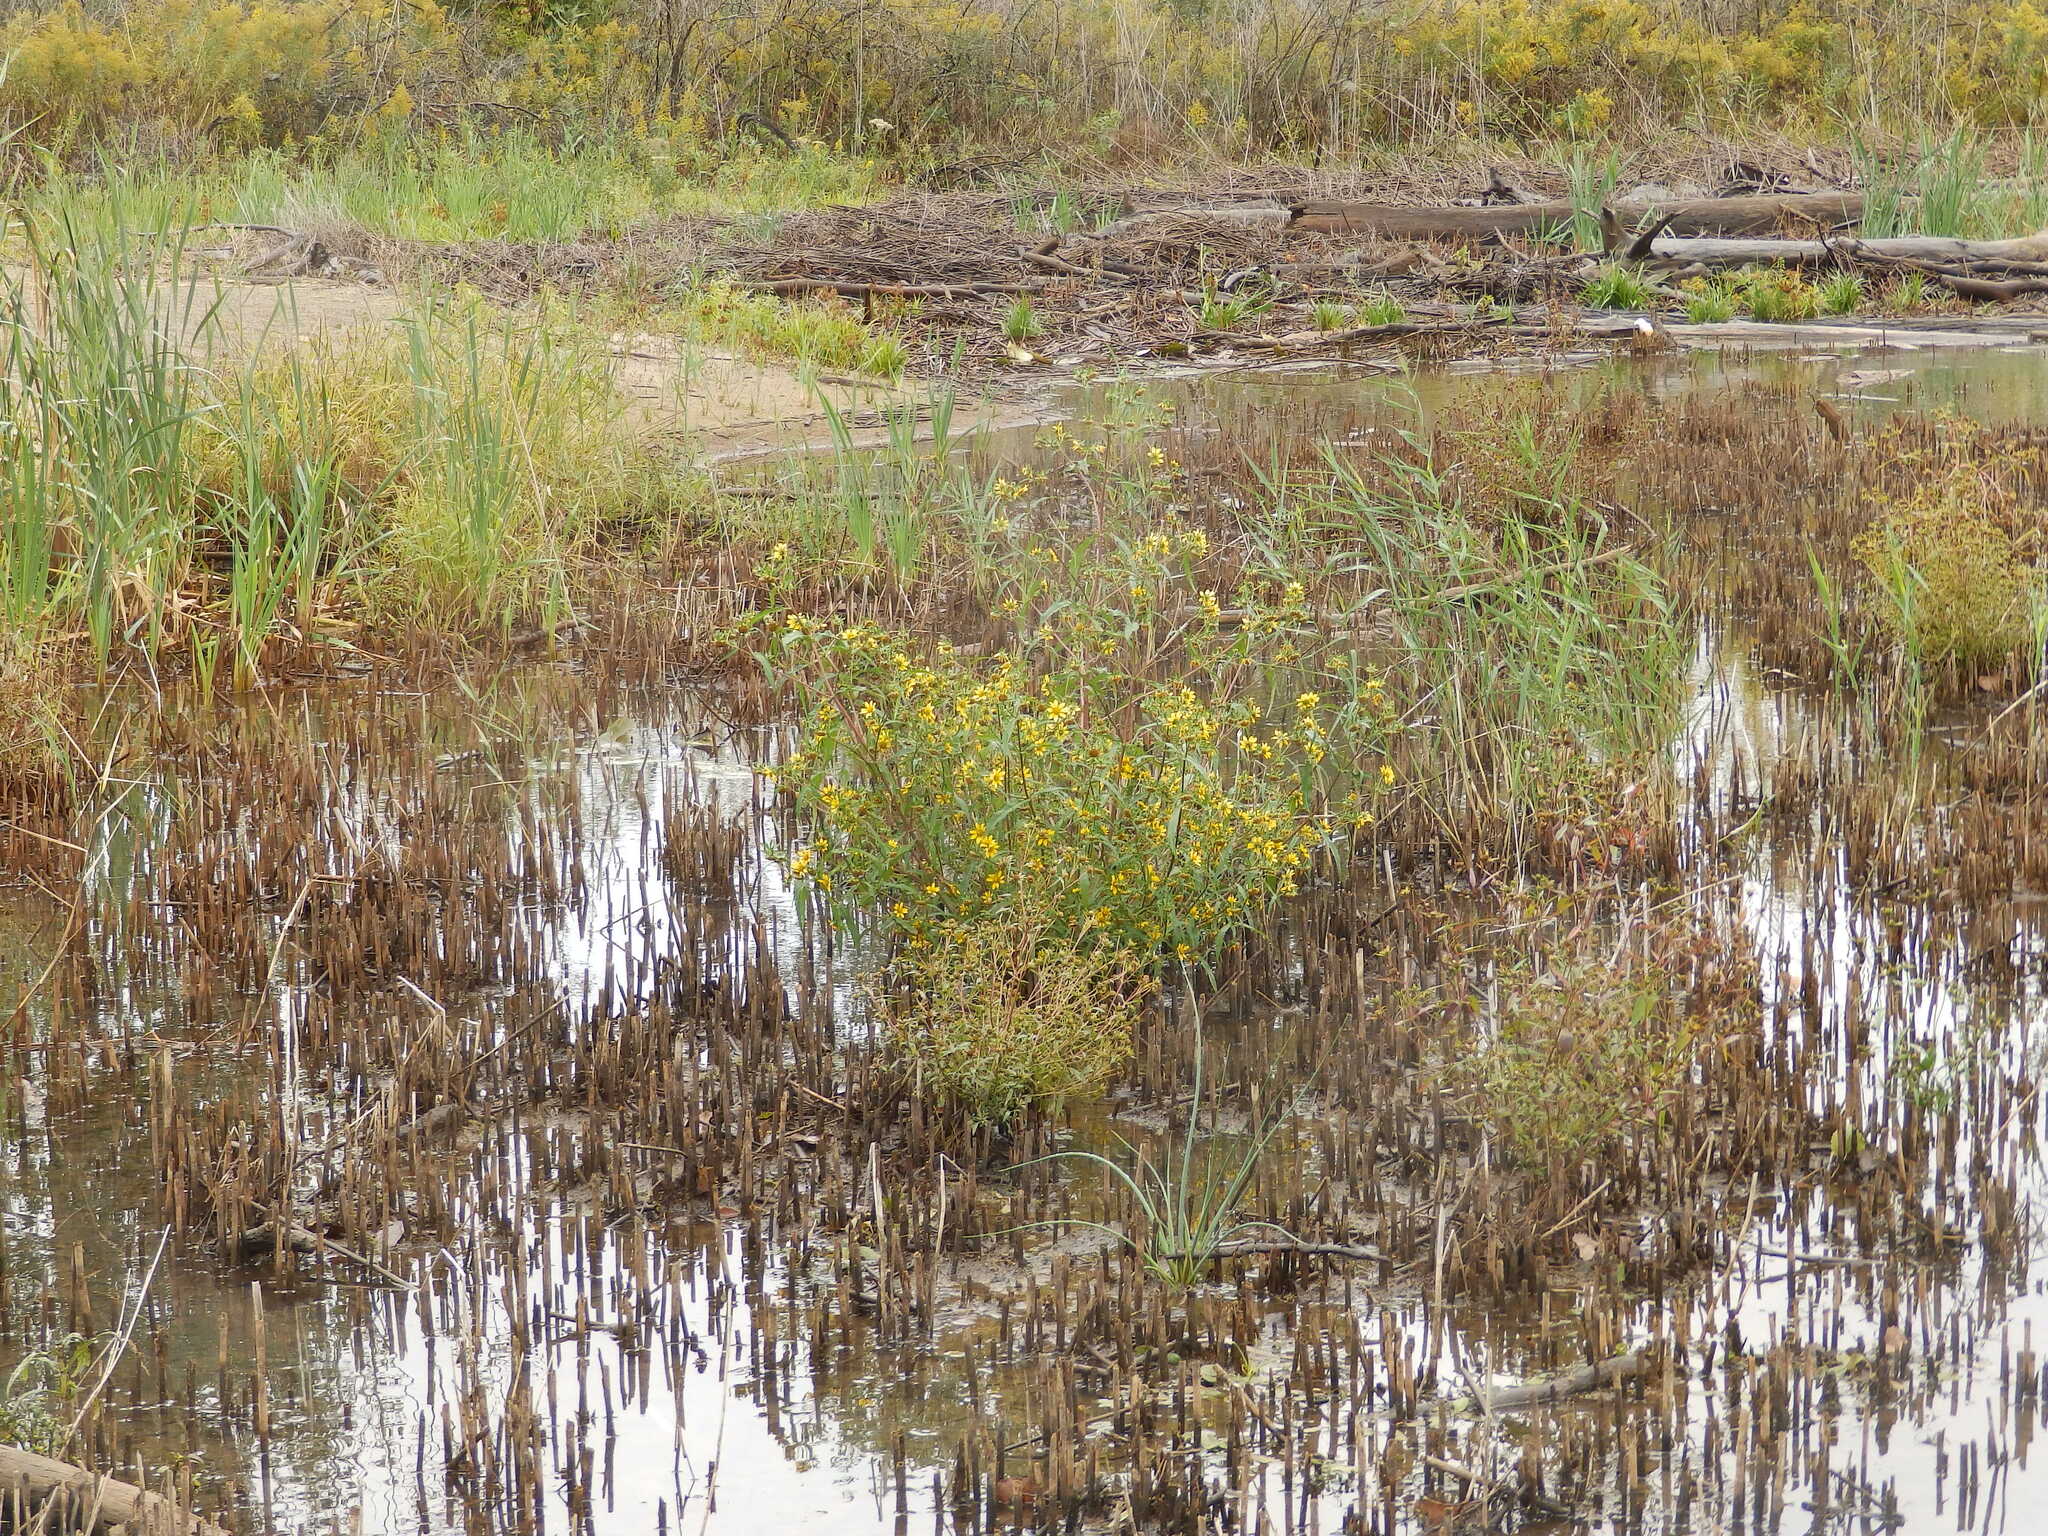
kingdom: Plantae
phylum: Tracheophyta
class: Magnoliopsida
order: Asterales
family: Asteraceae
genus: Bidens
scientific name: Bidens cernua
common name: Nodding bur-marigold
